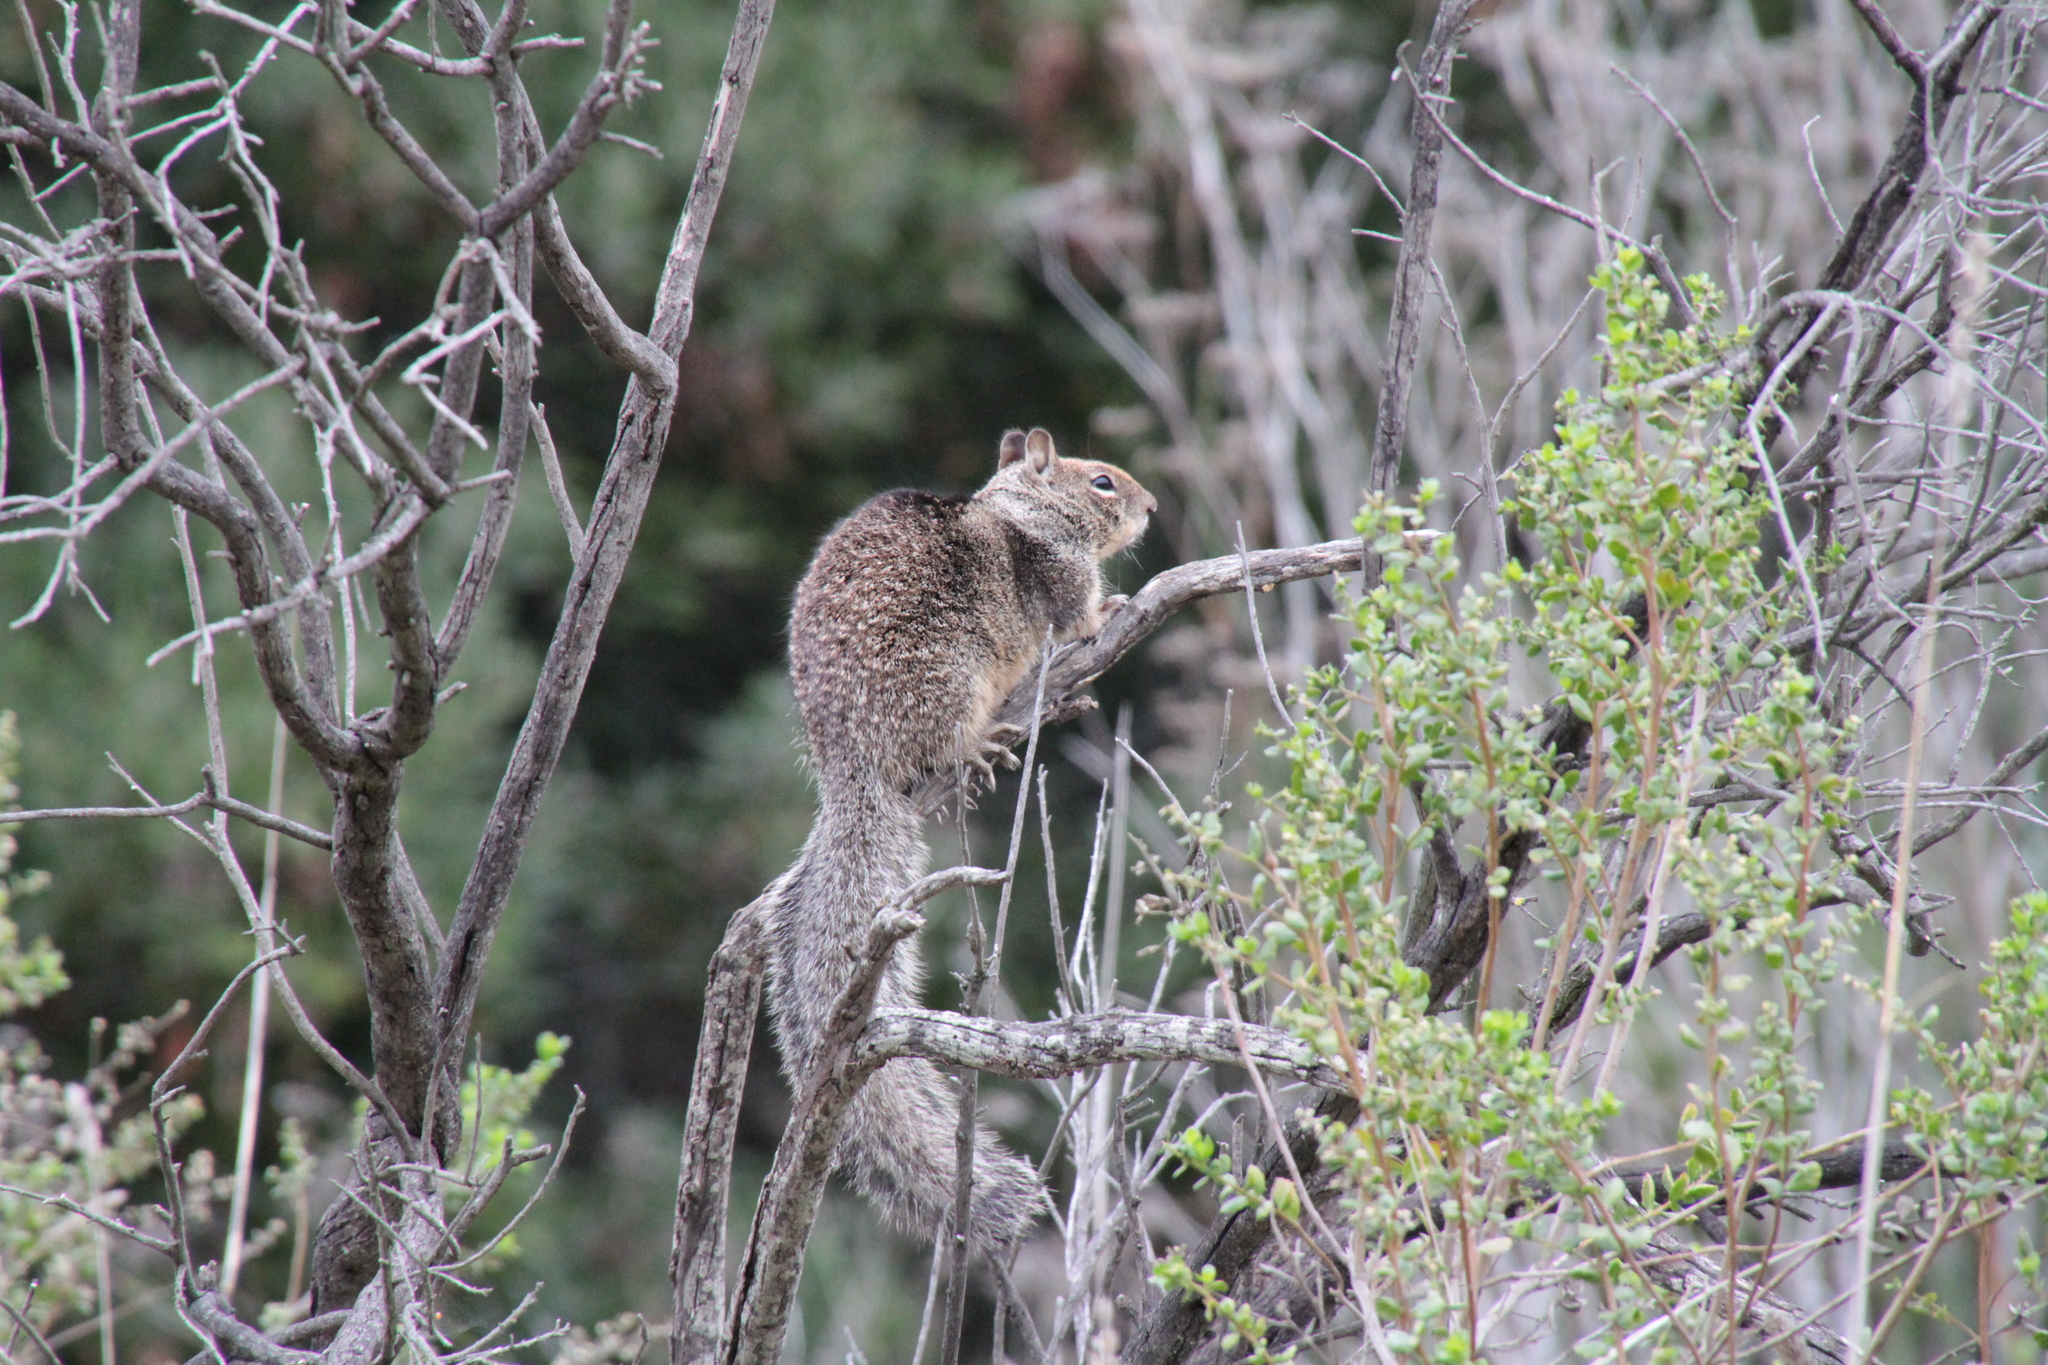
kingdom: Animalia
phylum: Chordata
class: Mammalia
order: Rodentia
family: Sciuridae
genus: Otospermophilus
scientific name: Otospermophilus beecheyi
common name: California ground squirrel
